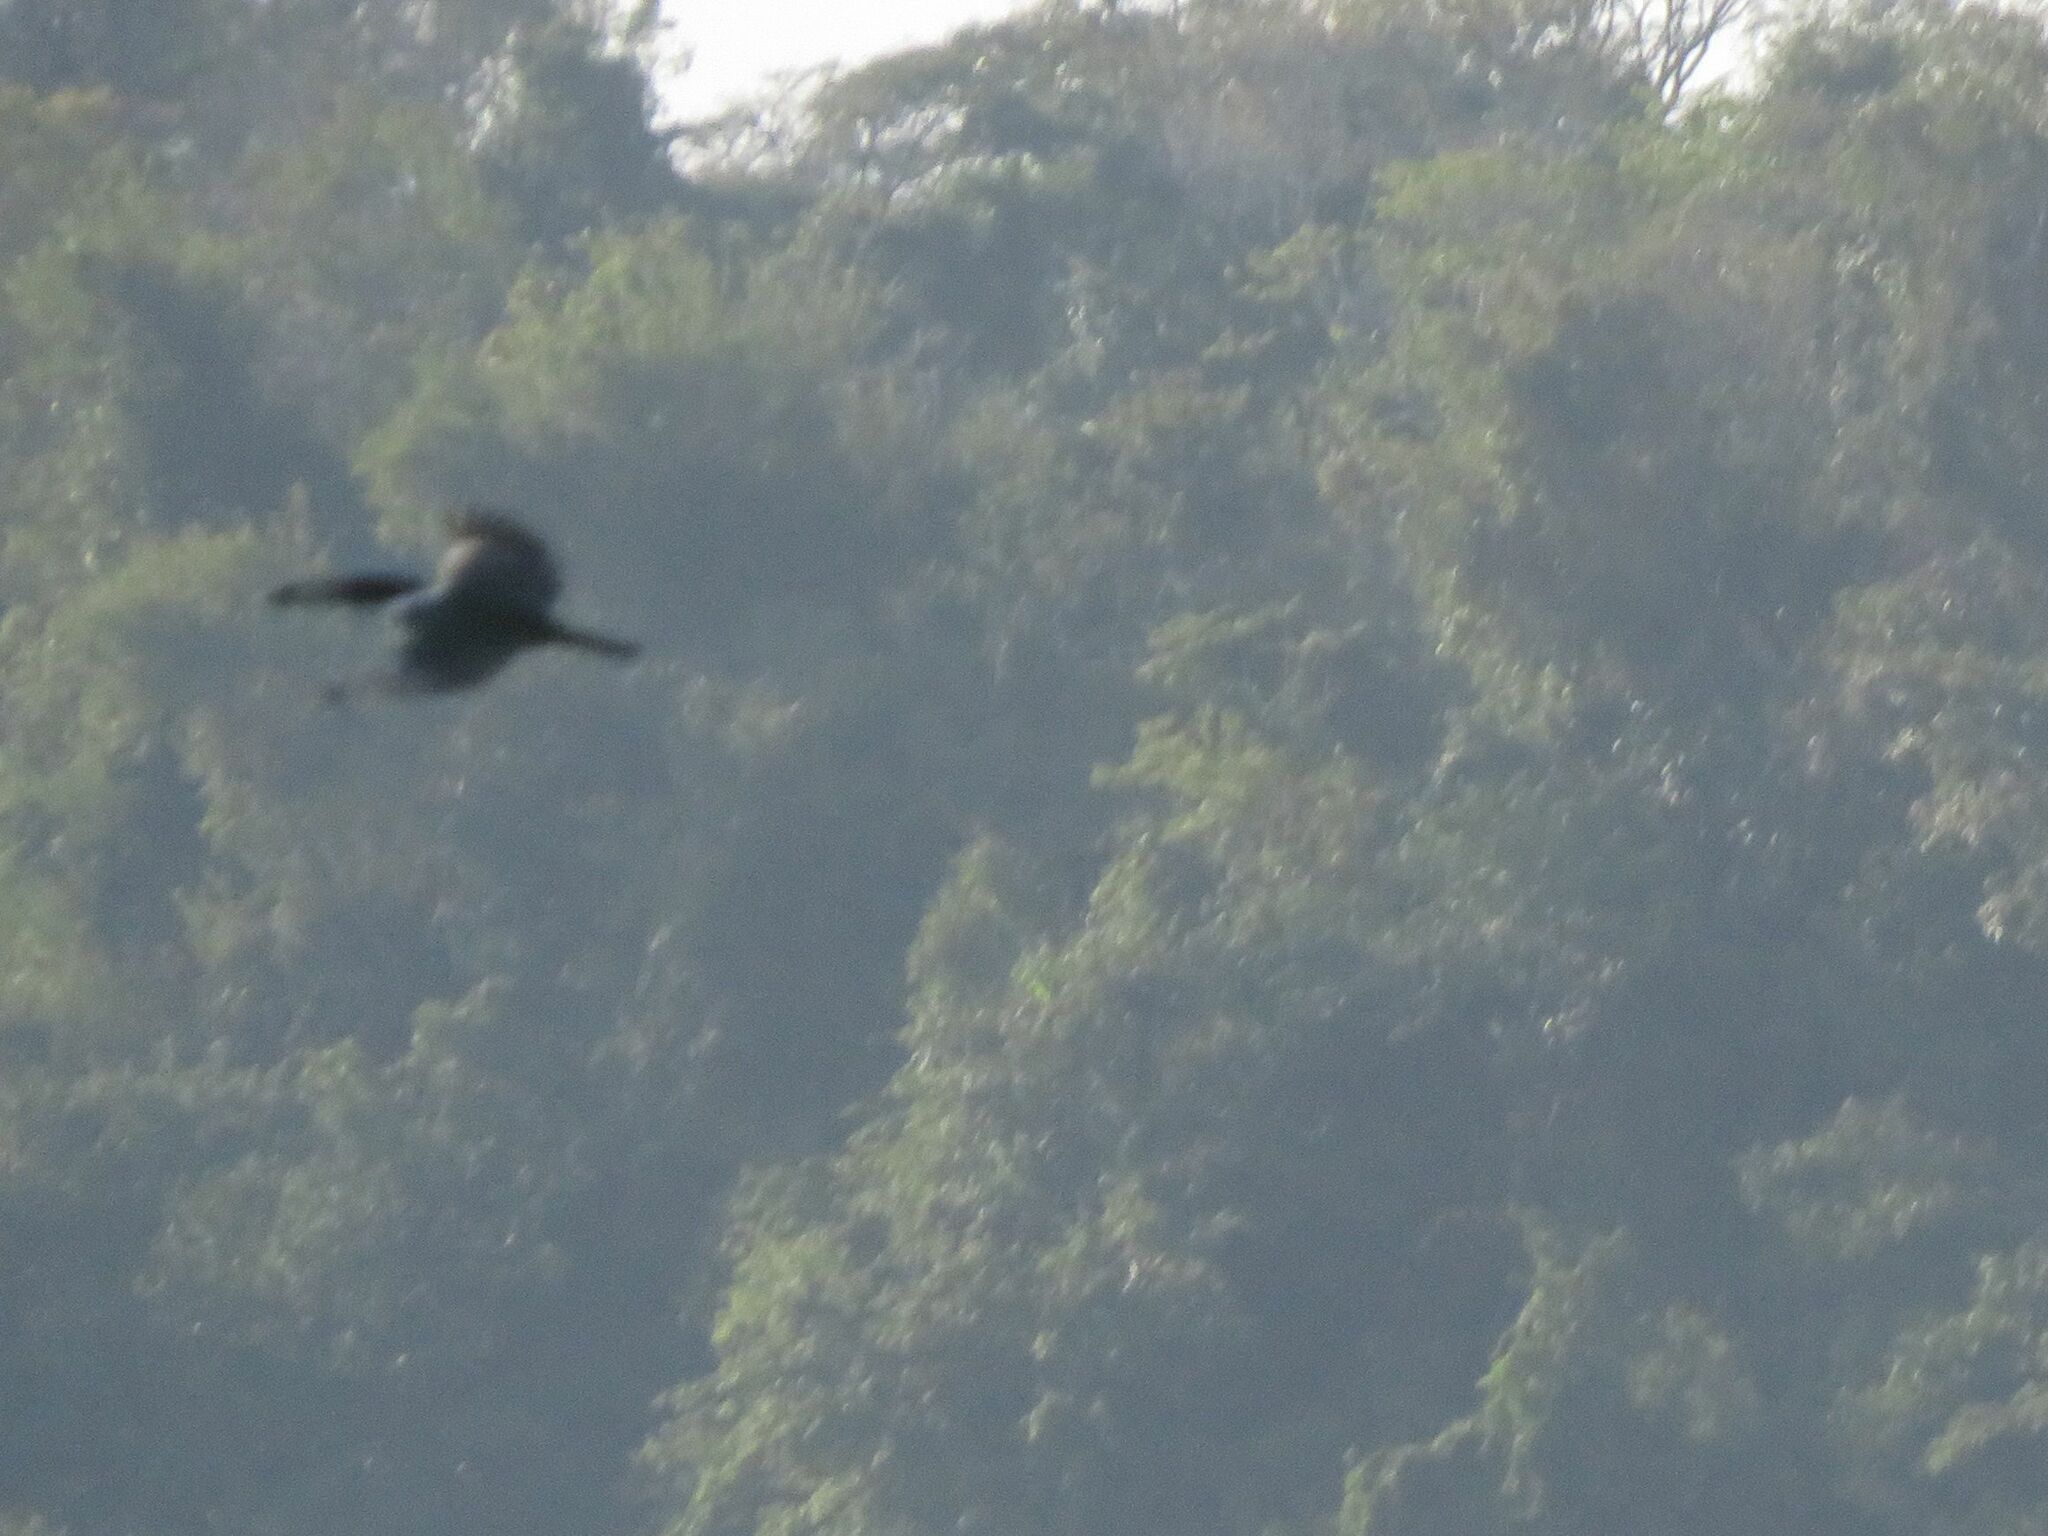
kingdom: Animalia
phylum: Chordata
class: Aves
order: Coraciiformes
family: Alcedinidae
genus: Megaceryle
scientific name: Megaceryle torquata
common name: Ringed kingfisher
